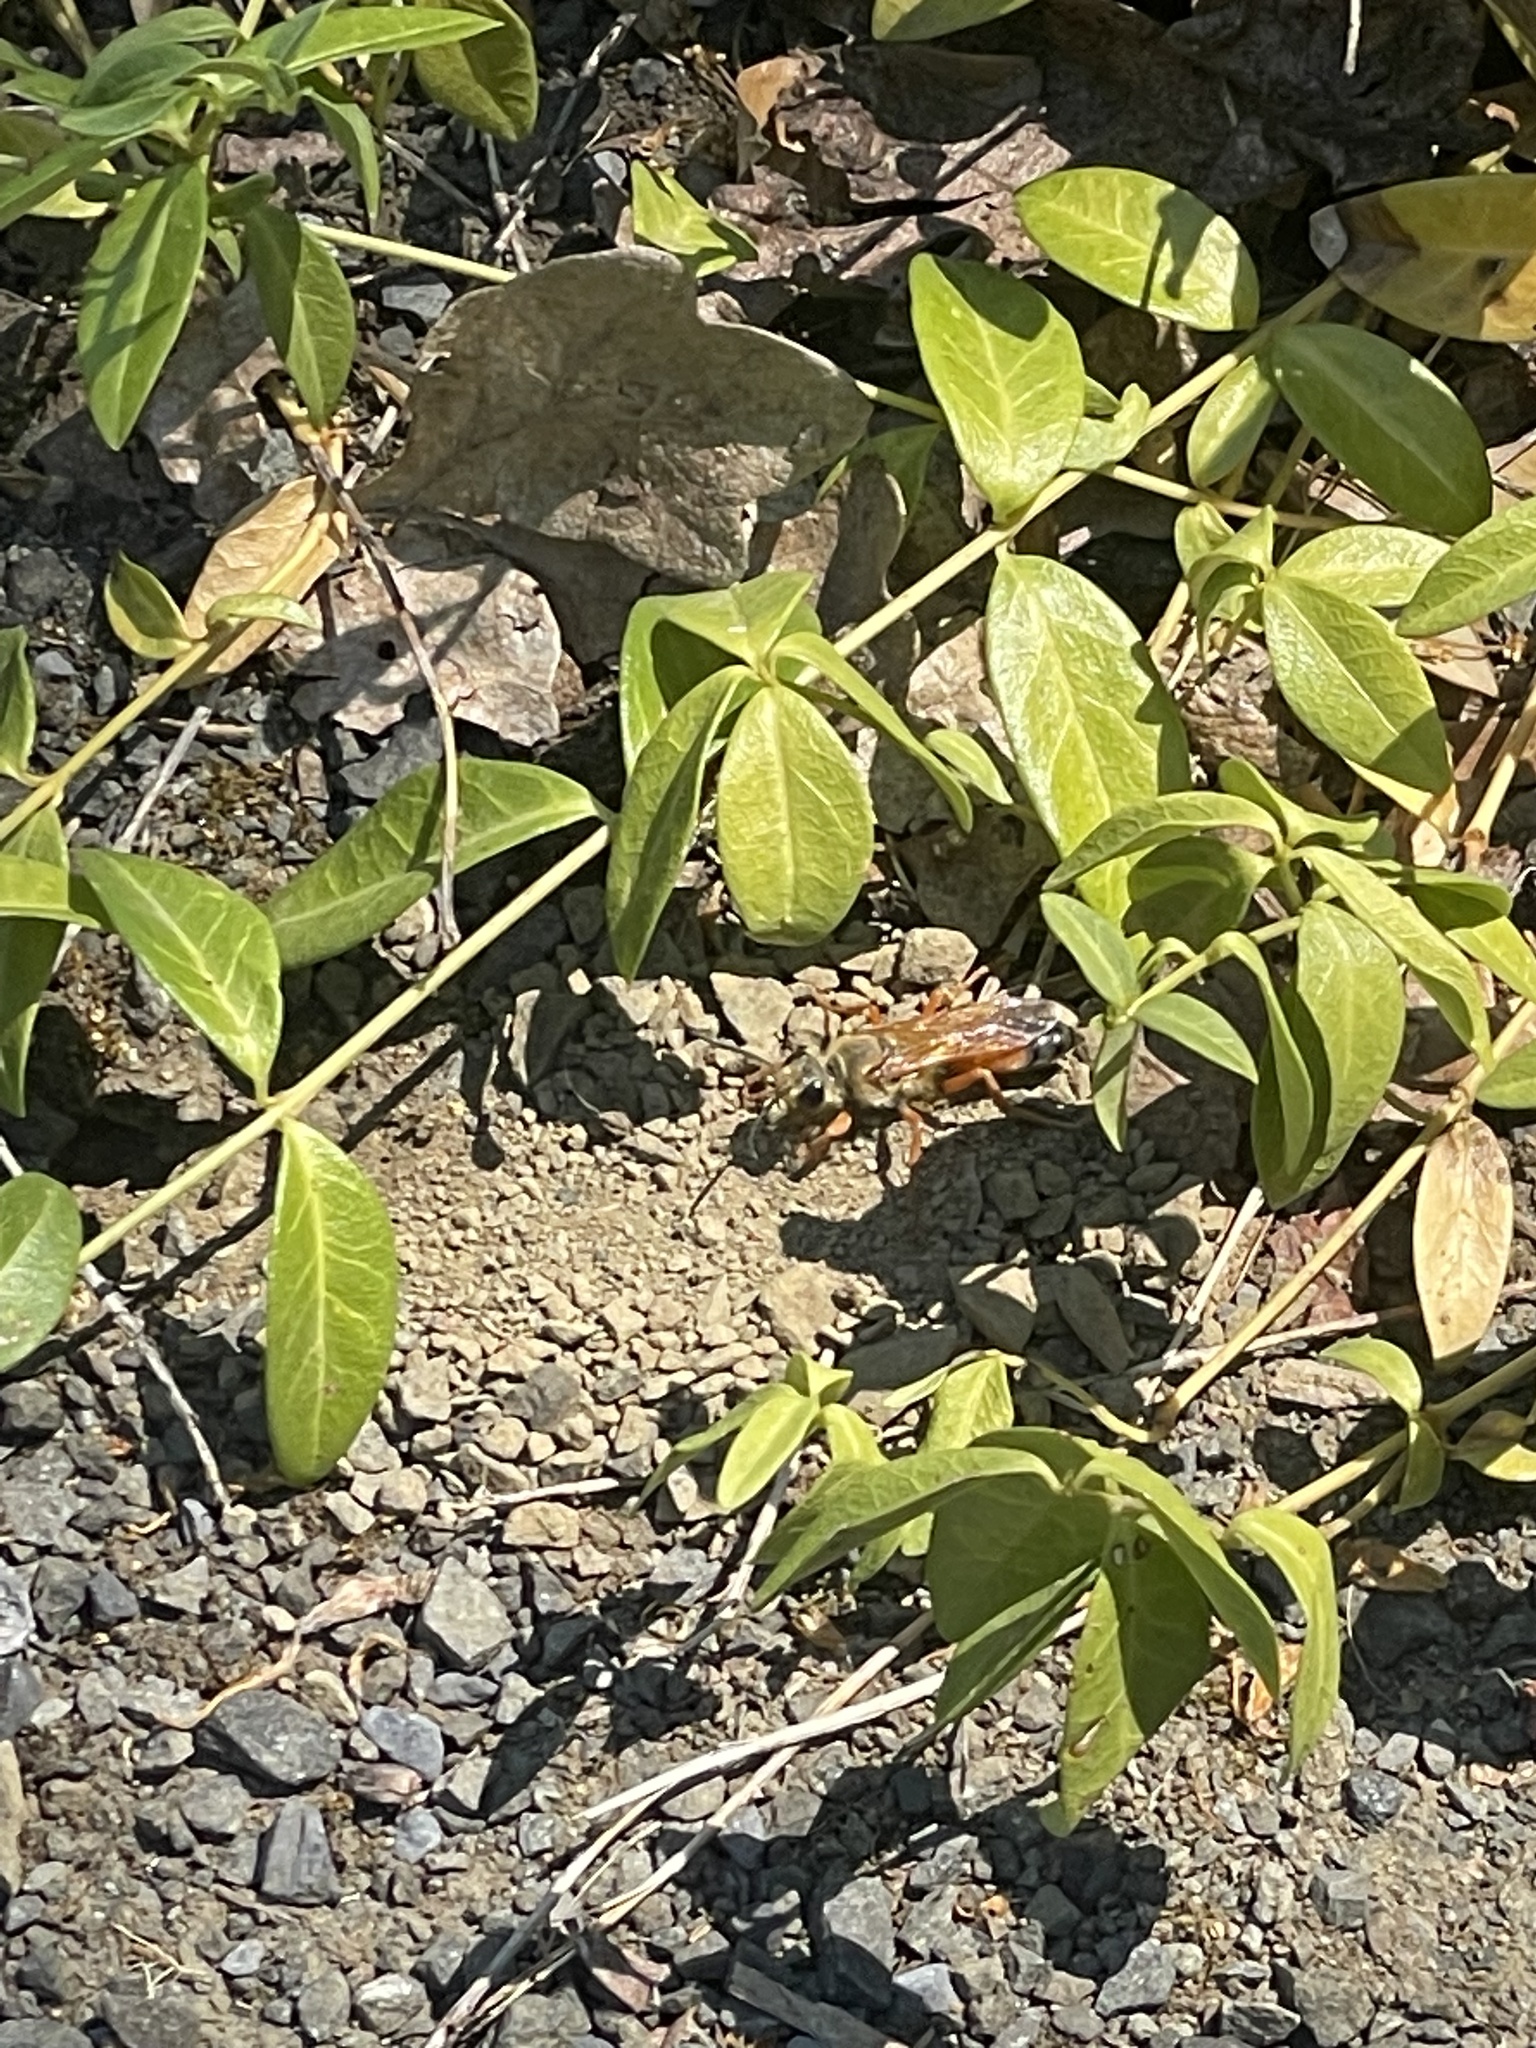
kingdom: Animalia
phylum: Arthropoda
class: Insecta
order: Hymenoptera
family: Sphecidae
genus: Sphex
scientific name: Sphex ichneumoneus
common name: Great golden digger wasp
